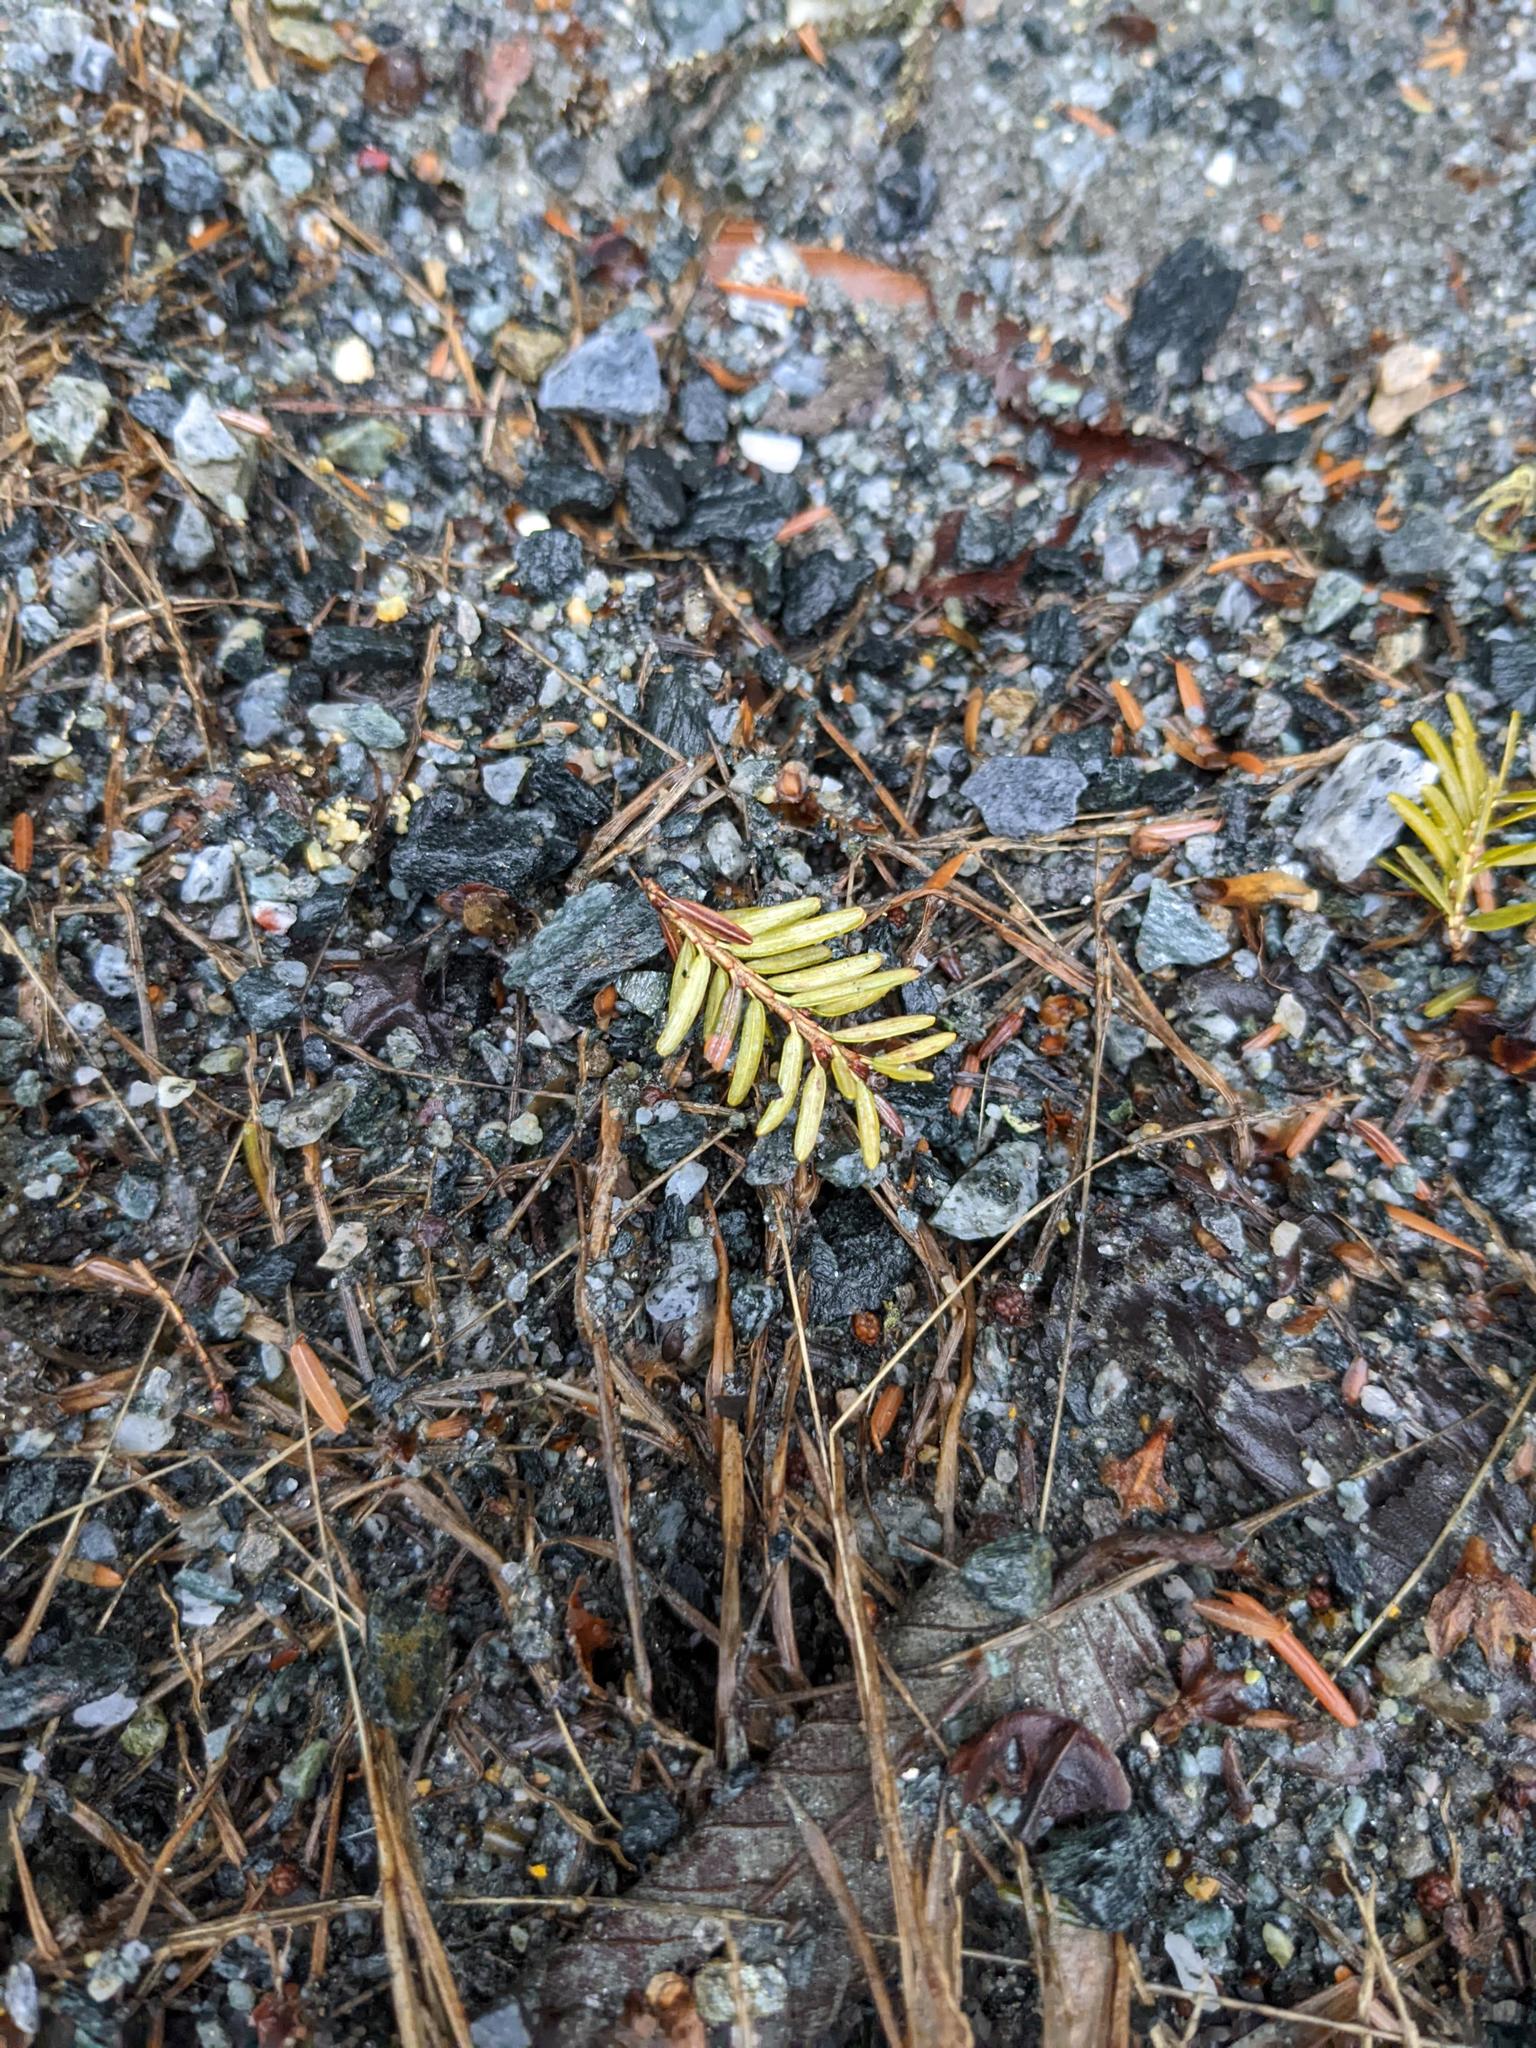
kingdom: Plantae
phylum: Tracheophyta
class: Pinopsida
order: Pinales
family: Pinaceae
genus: Tsuga
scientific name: Tsuga canadensis
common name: Eastern hemlock
